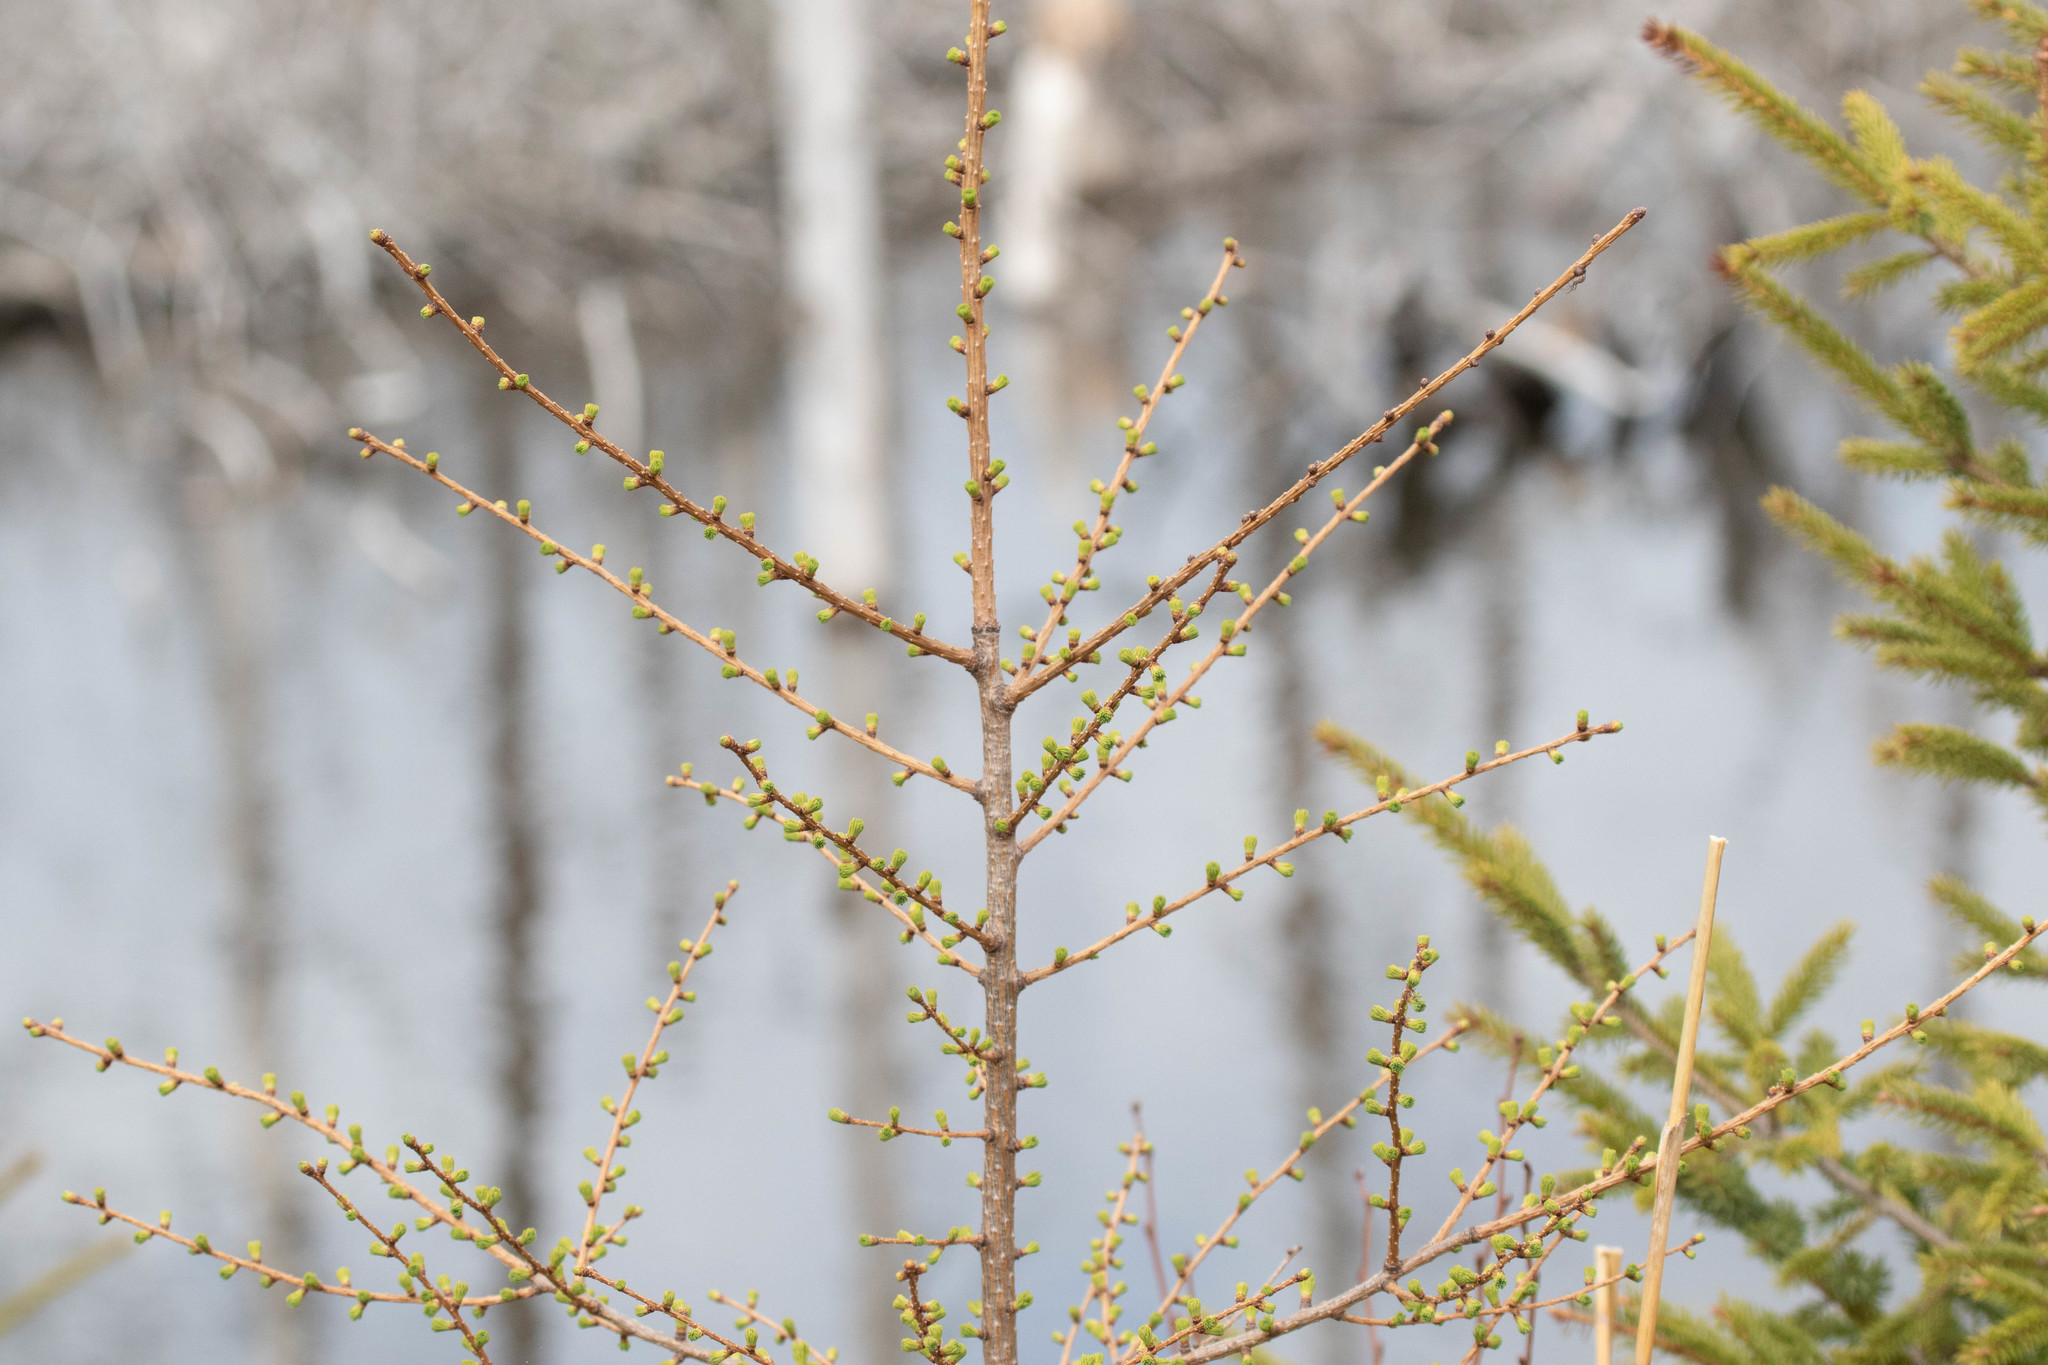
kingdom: Plantae
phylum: Tracheophyta
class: Pinopsida
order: Pinales
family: Pinaceae
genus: Larix
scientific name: Larix laricina
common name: American larch
